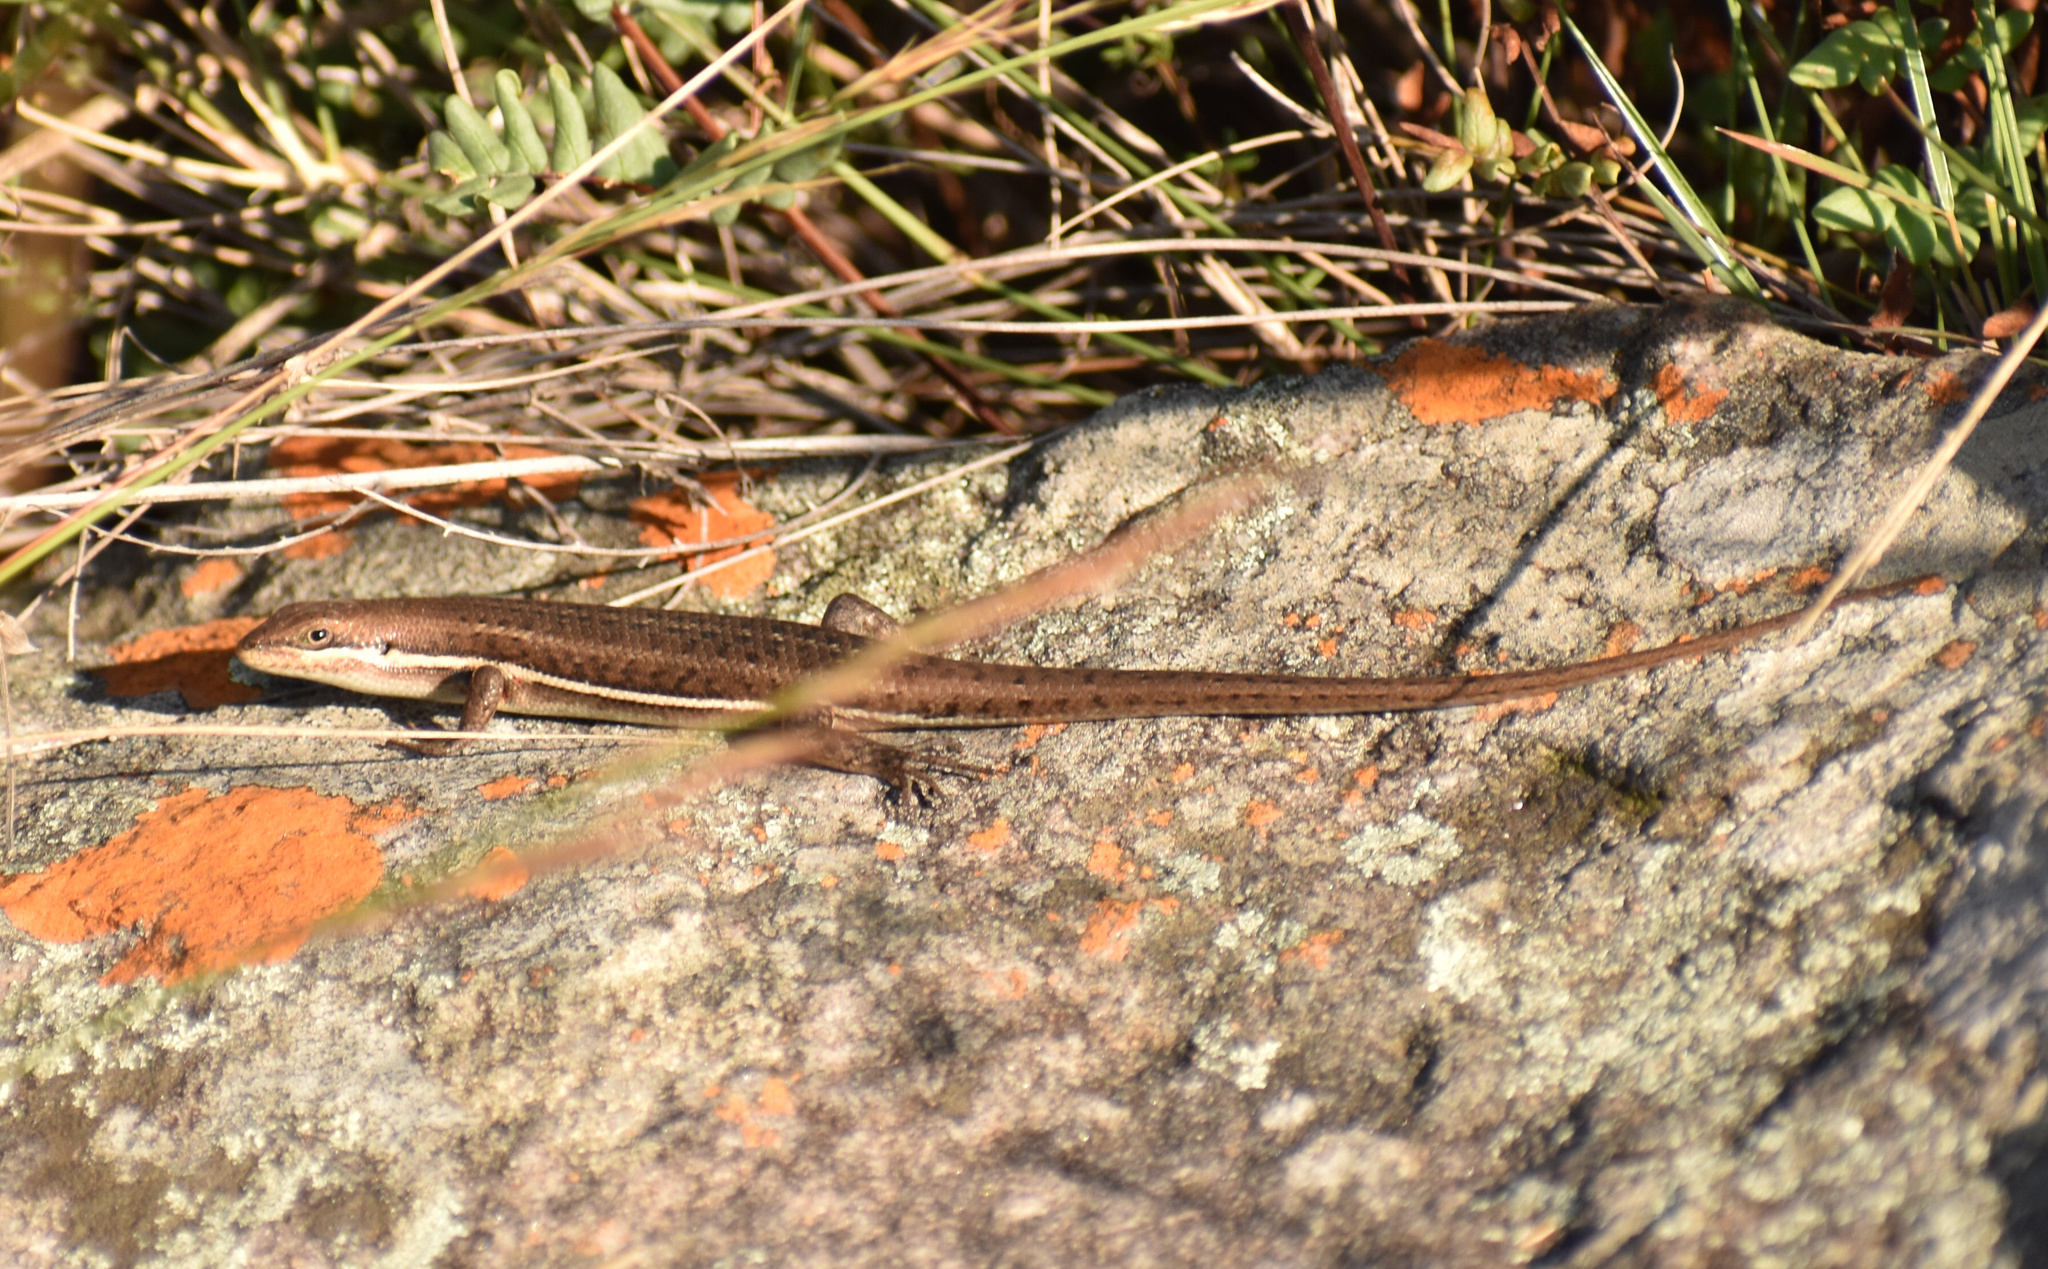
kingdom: Animalia
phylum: Chordata
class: Squamata
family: Scincidae
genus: Trachylepis
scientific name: Trachylepis varia
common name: Eastern variable skink
